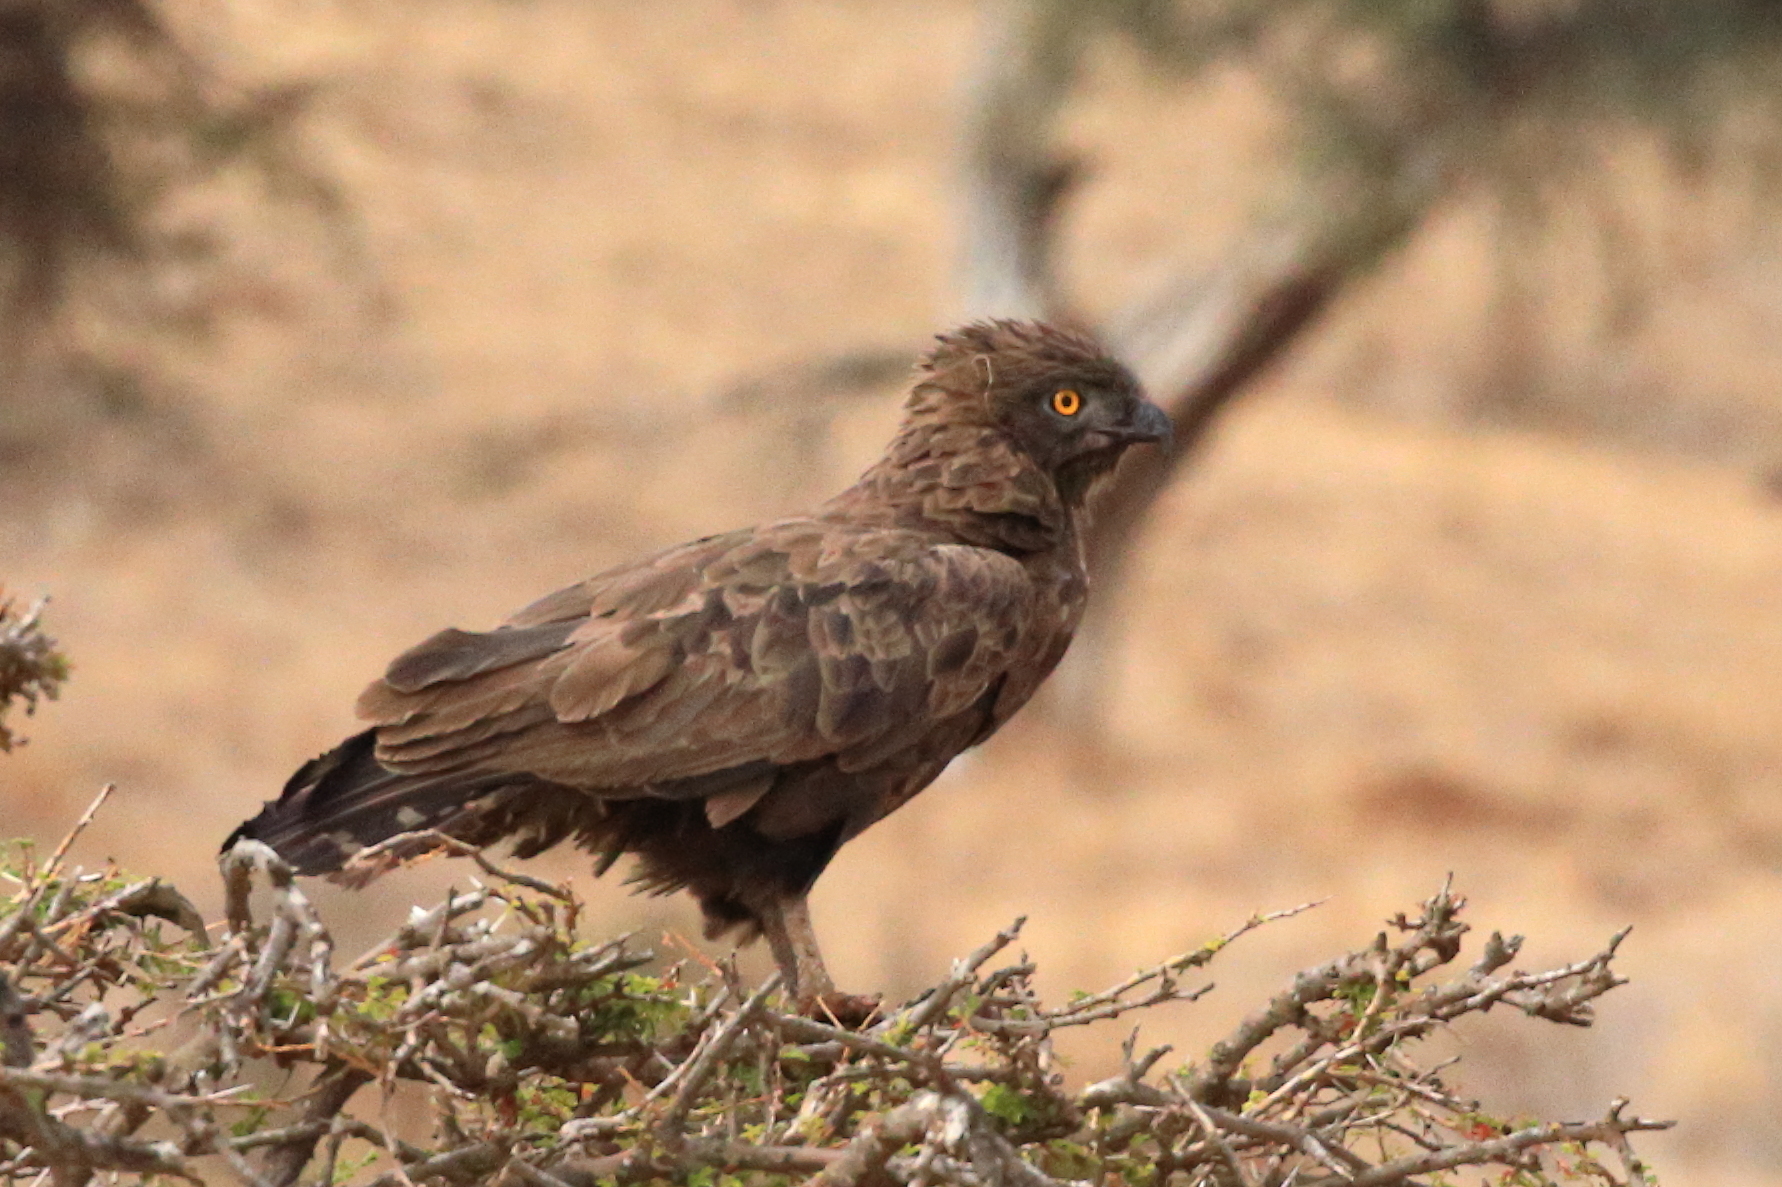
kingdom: Animalia
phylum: Chordata
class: Aves
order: Accipitriformes
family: Accipitridae
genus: Circaetus
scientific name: Circaetus cinereus
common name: Brown snake eagle
